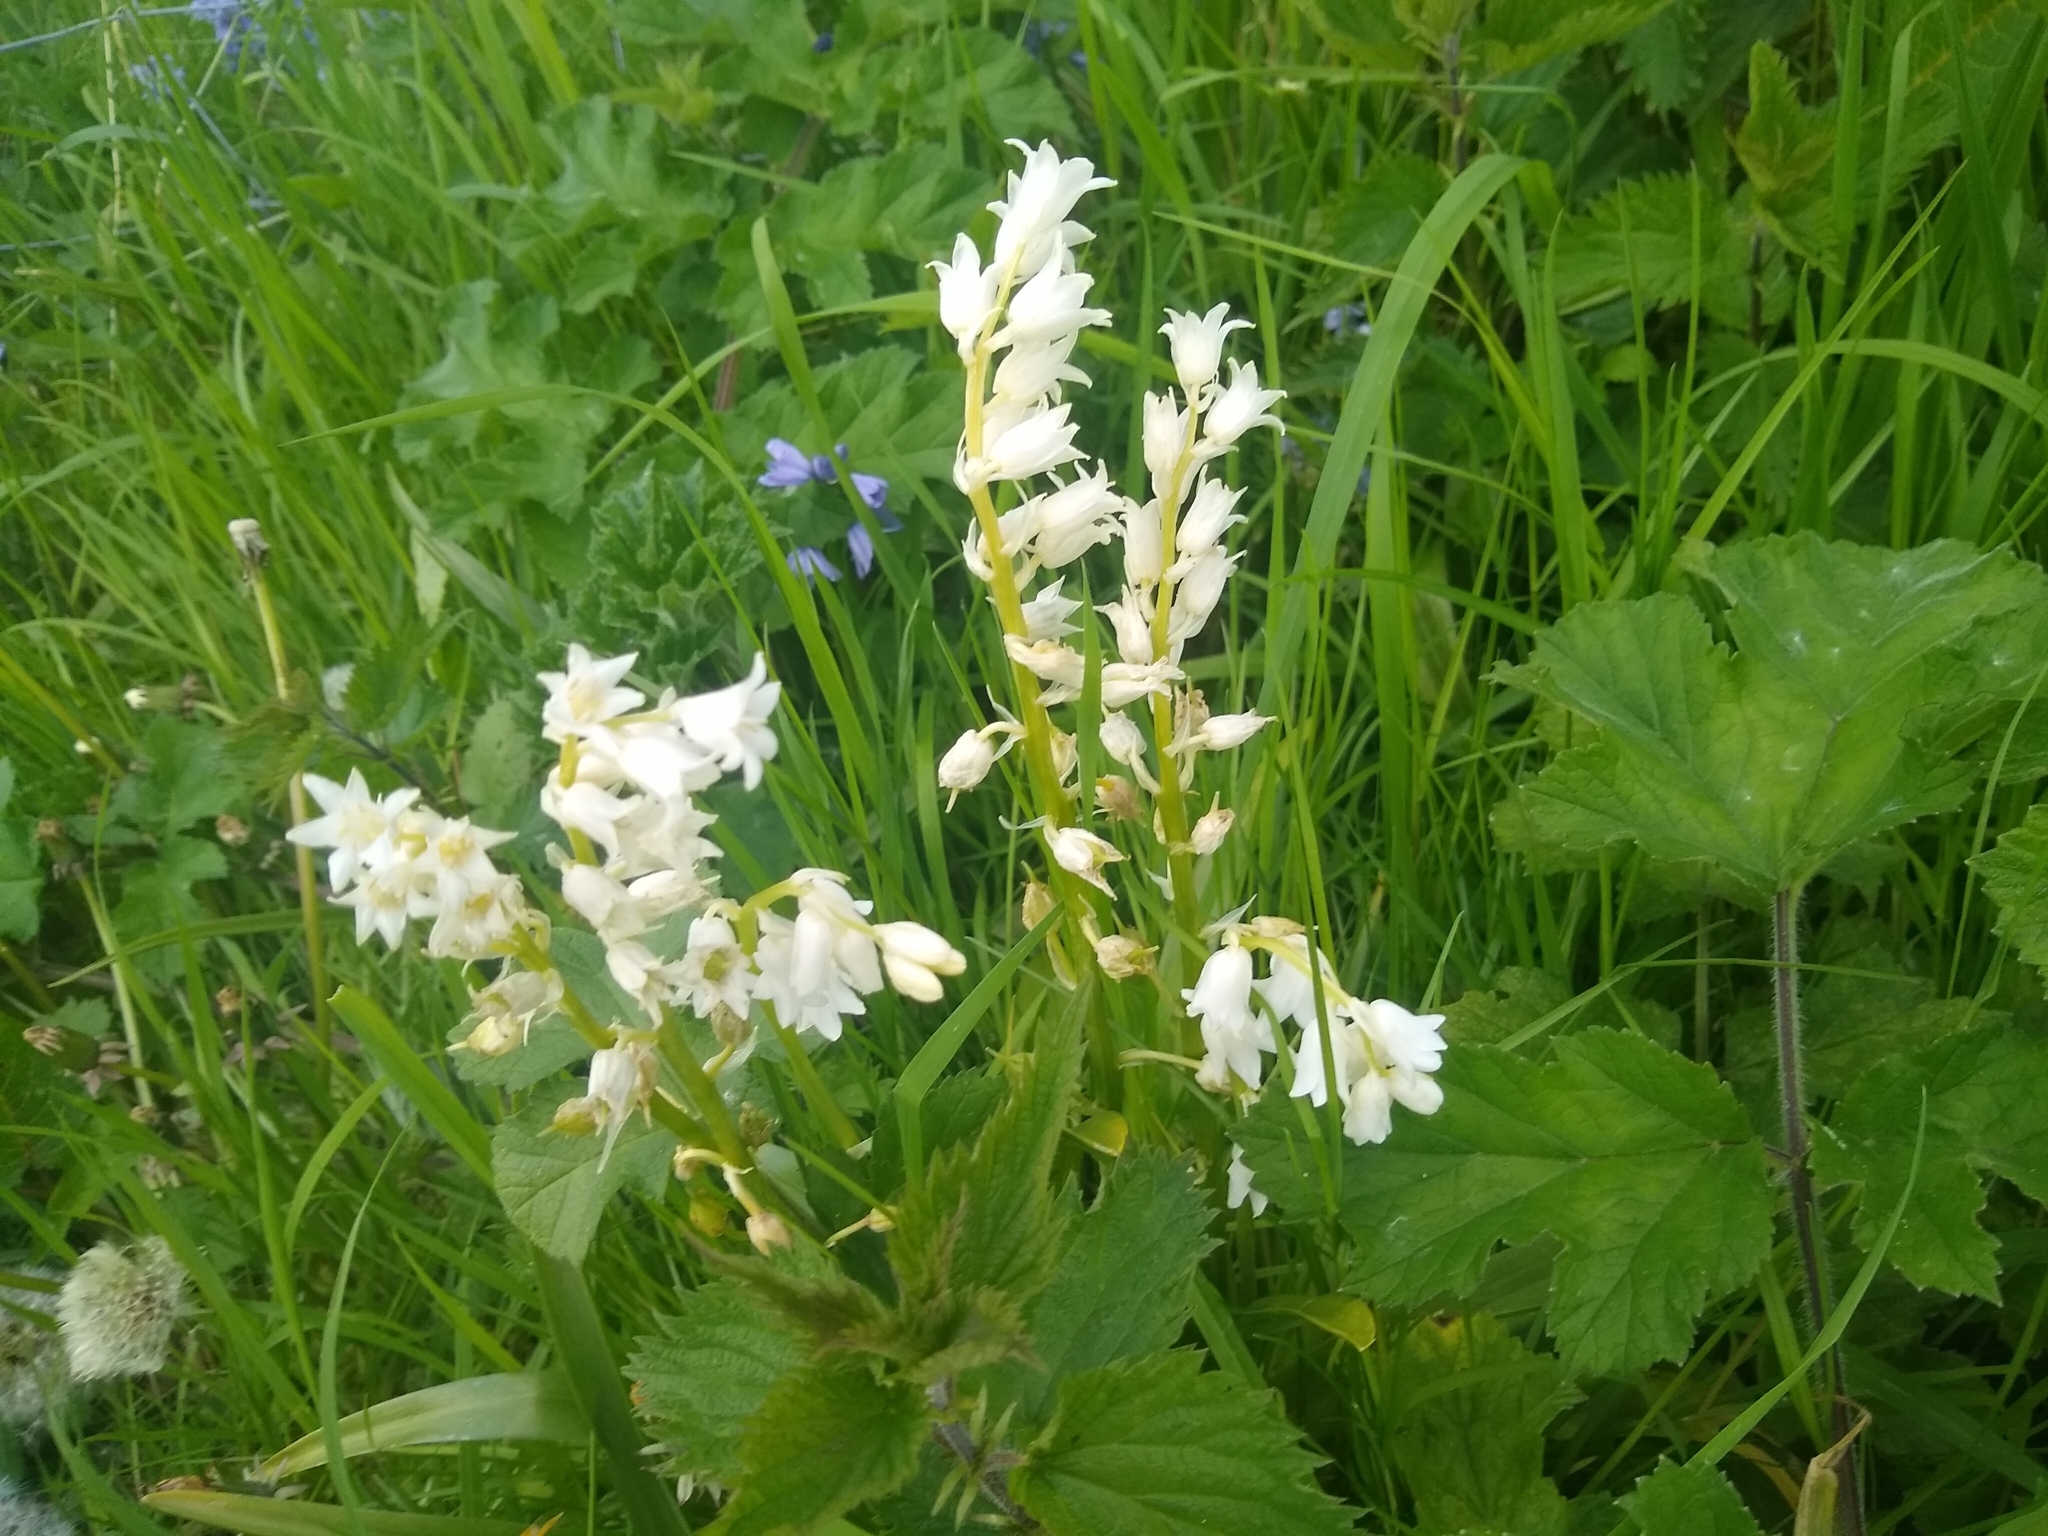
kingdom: Plantae
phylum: Tracheophyta
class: Liliopsida
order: Asparagales
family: Asparagaceae
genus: Hyacinthoides
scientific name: Hyacinthoides massartiana
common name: Hyacinthoides
